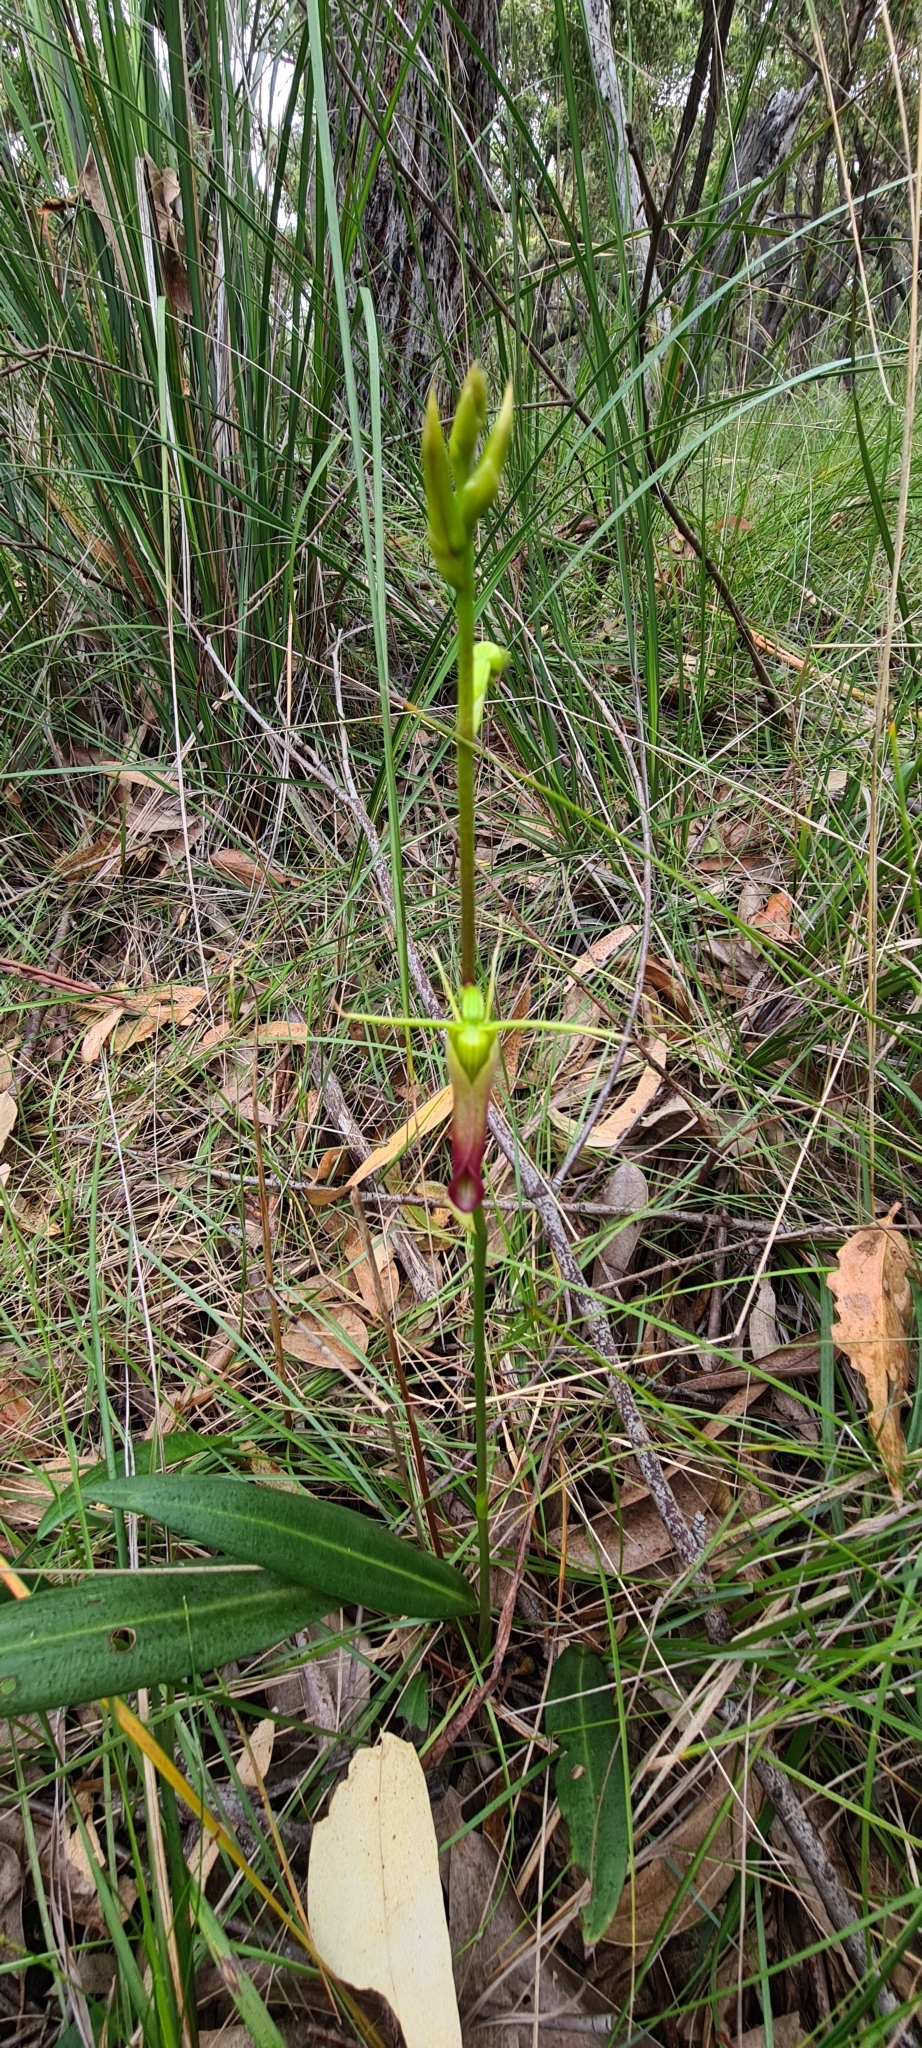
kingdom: Plantae
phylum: Tracheophyta
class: Liliopsida
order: Asparagales
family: Orchidaceae
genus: Cryptostylis
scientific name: Cryptostylis subulata
